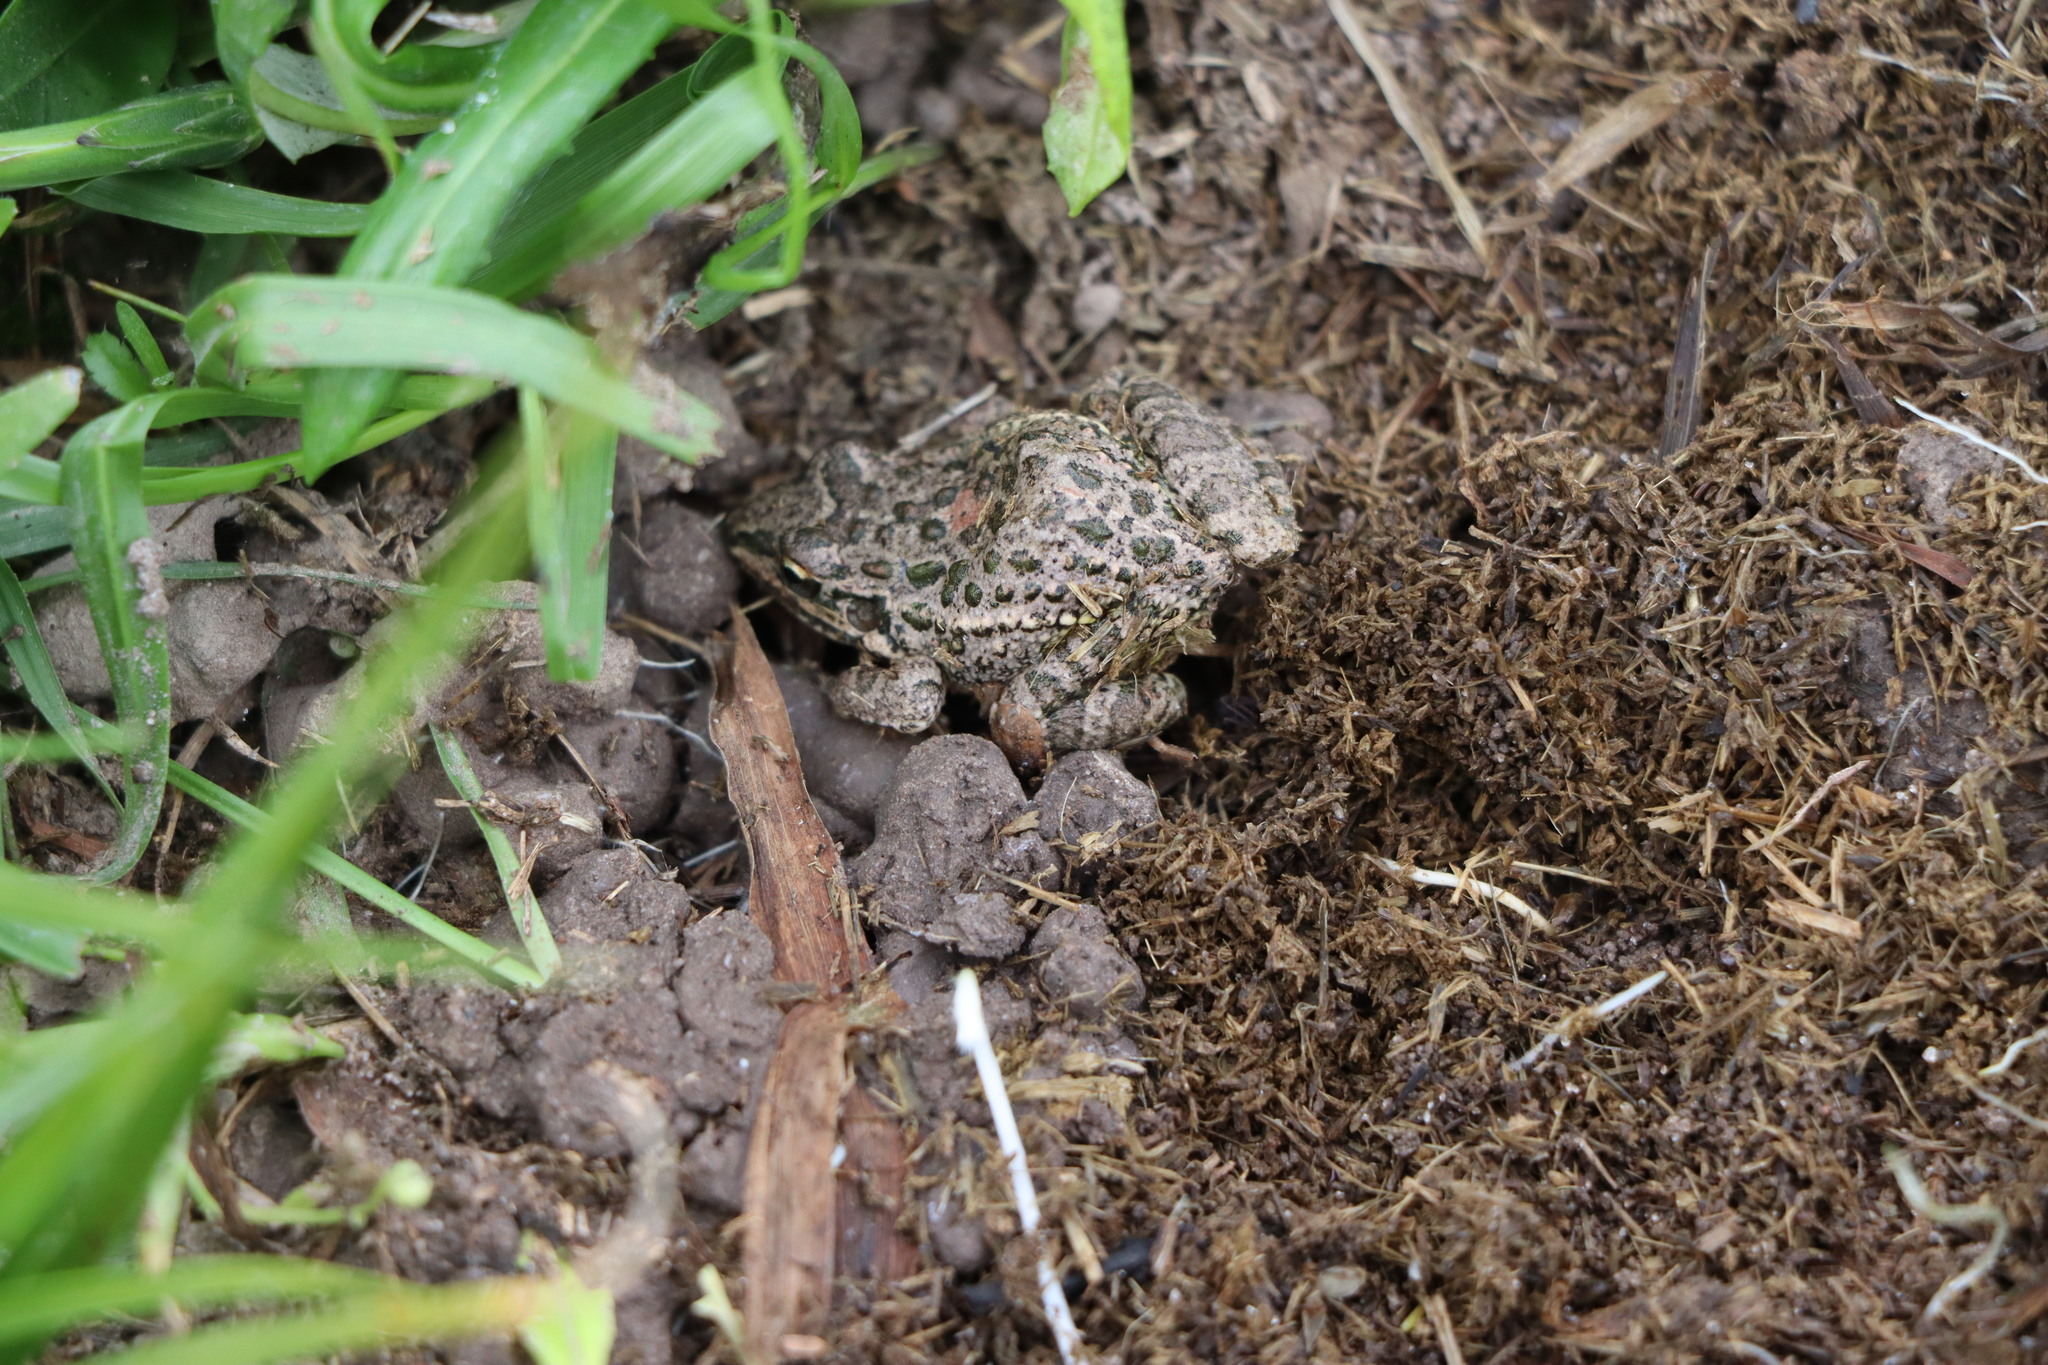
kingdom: Animalia
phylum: Chordata
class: Amphibia
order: Anura
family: Leptodactylidae
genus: Leptodactylus
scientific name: Leptodactylus latinasus
